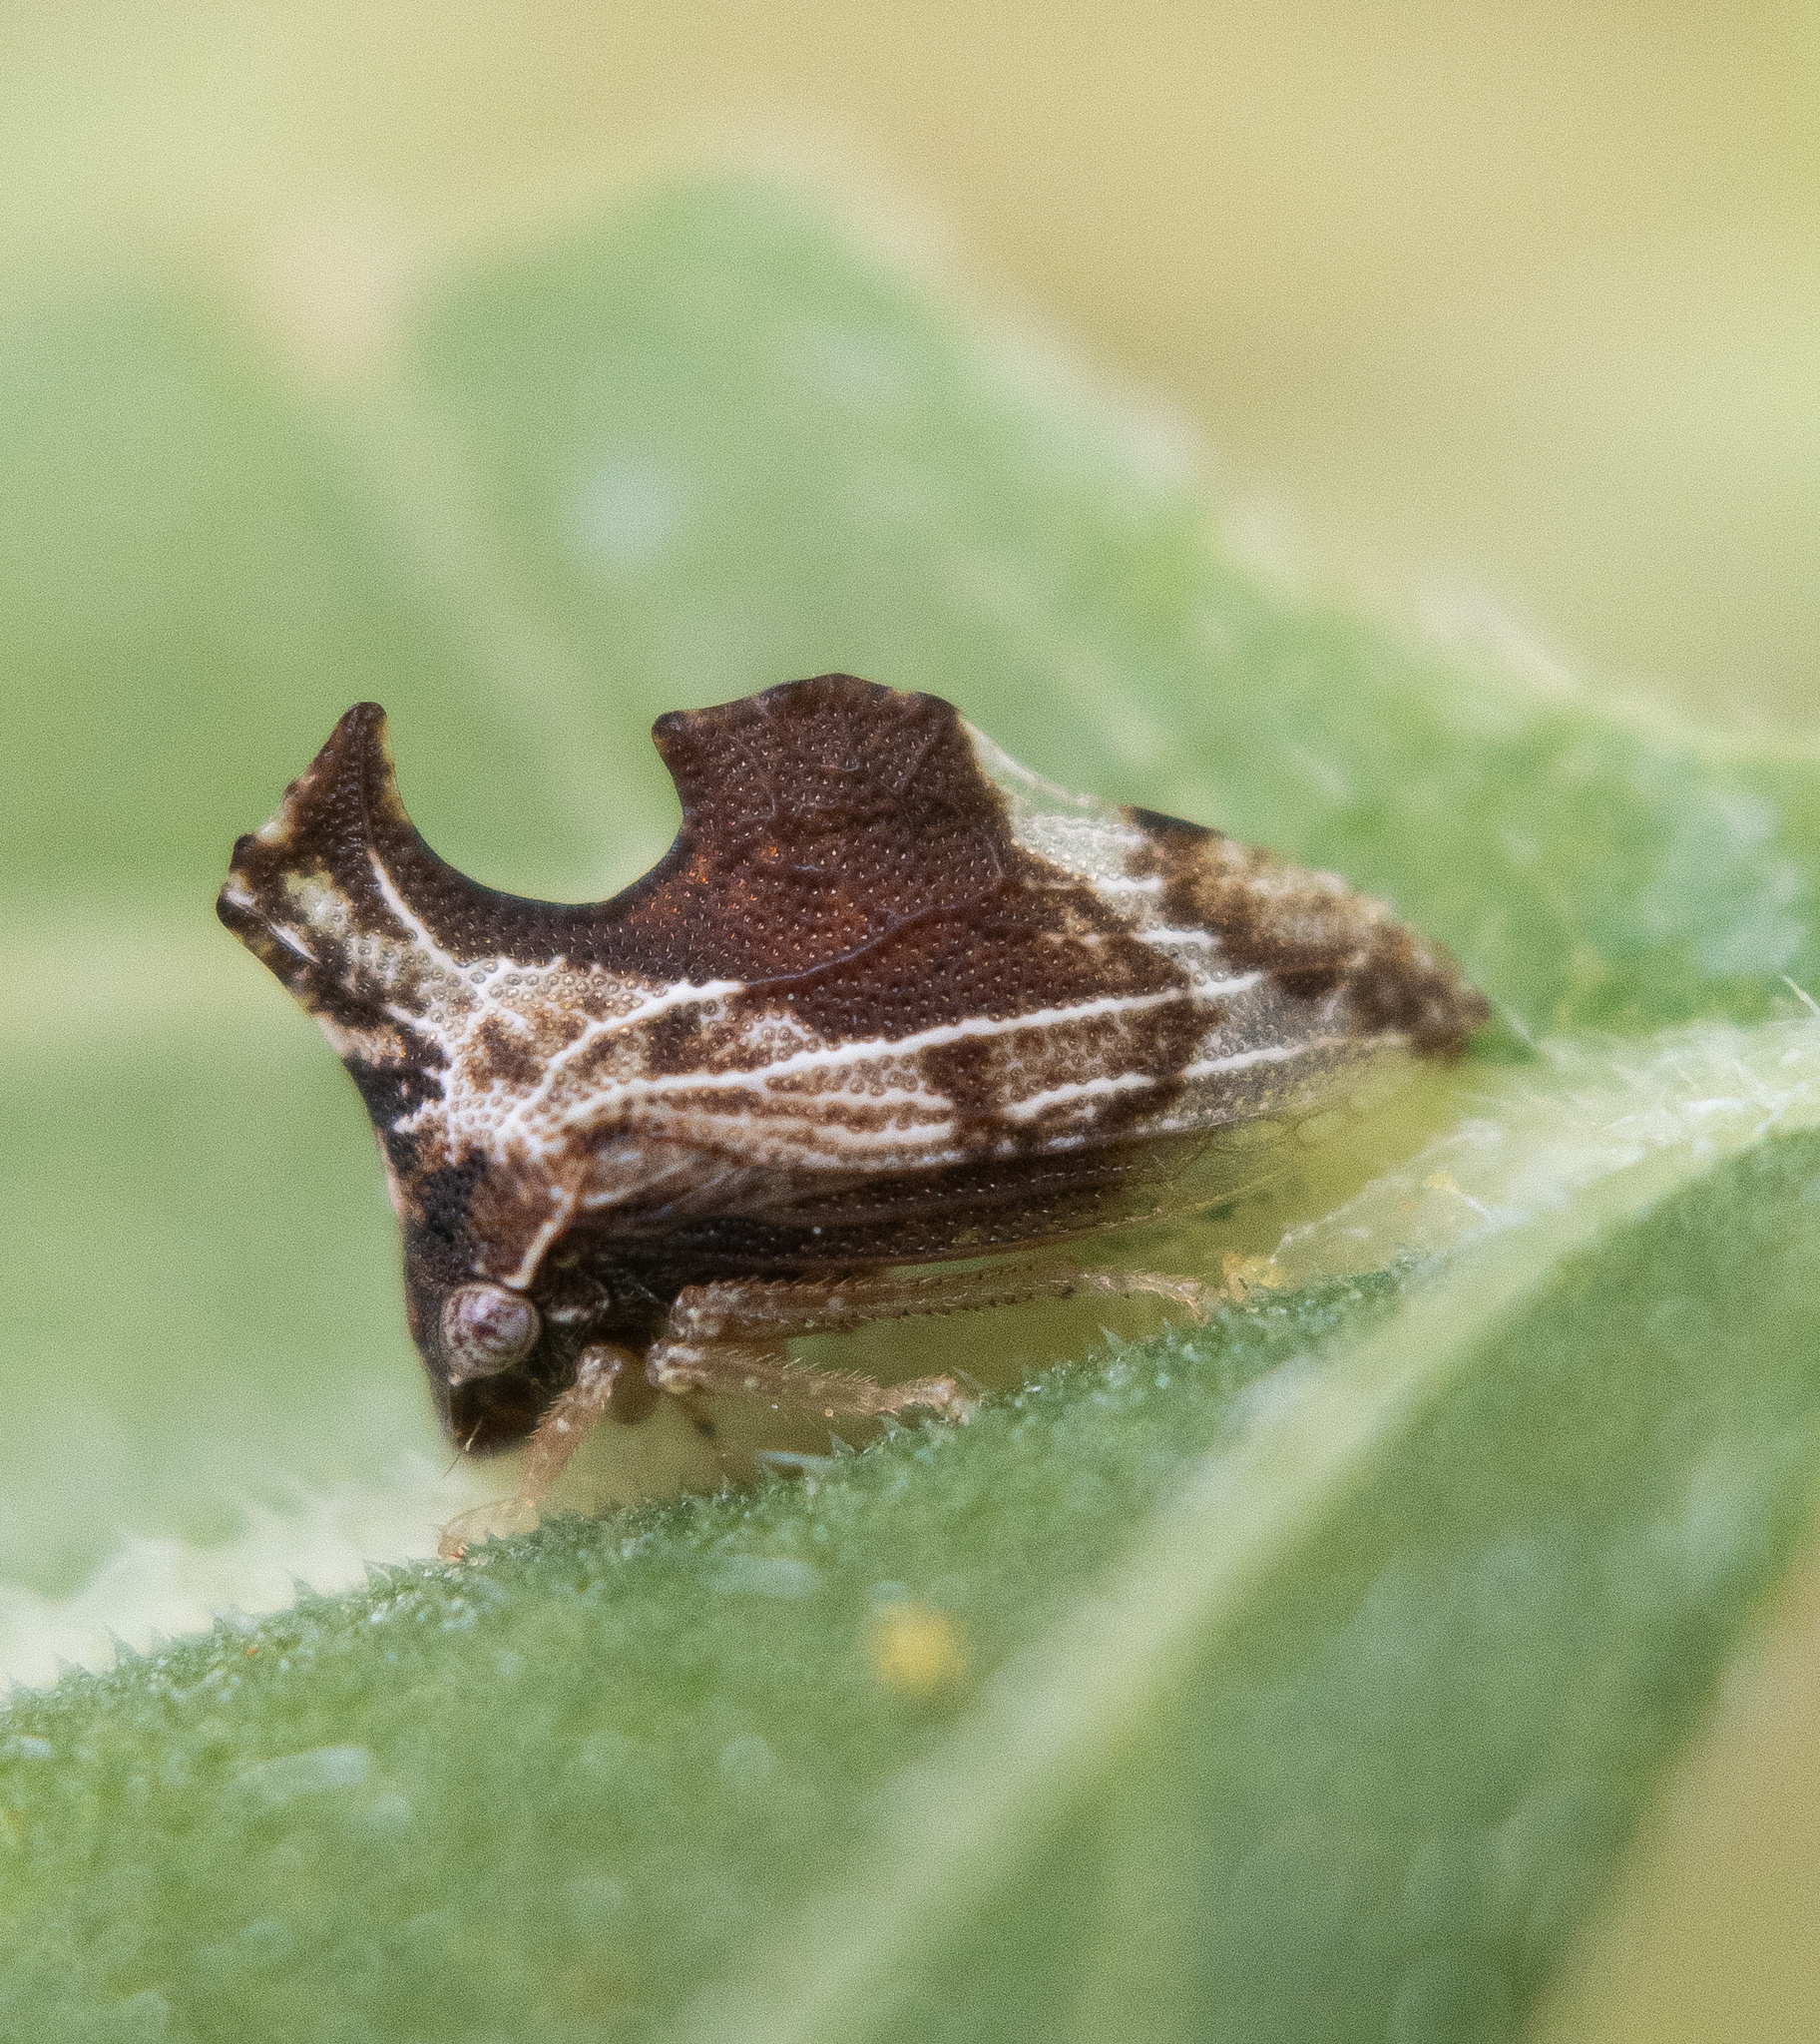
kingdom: Animalia
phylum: Arthropoda
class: Insecta
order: Hemiptera
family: Membracidae
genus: Entylia
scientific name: Entylia carinata
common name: Keeled treehopper
